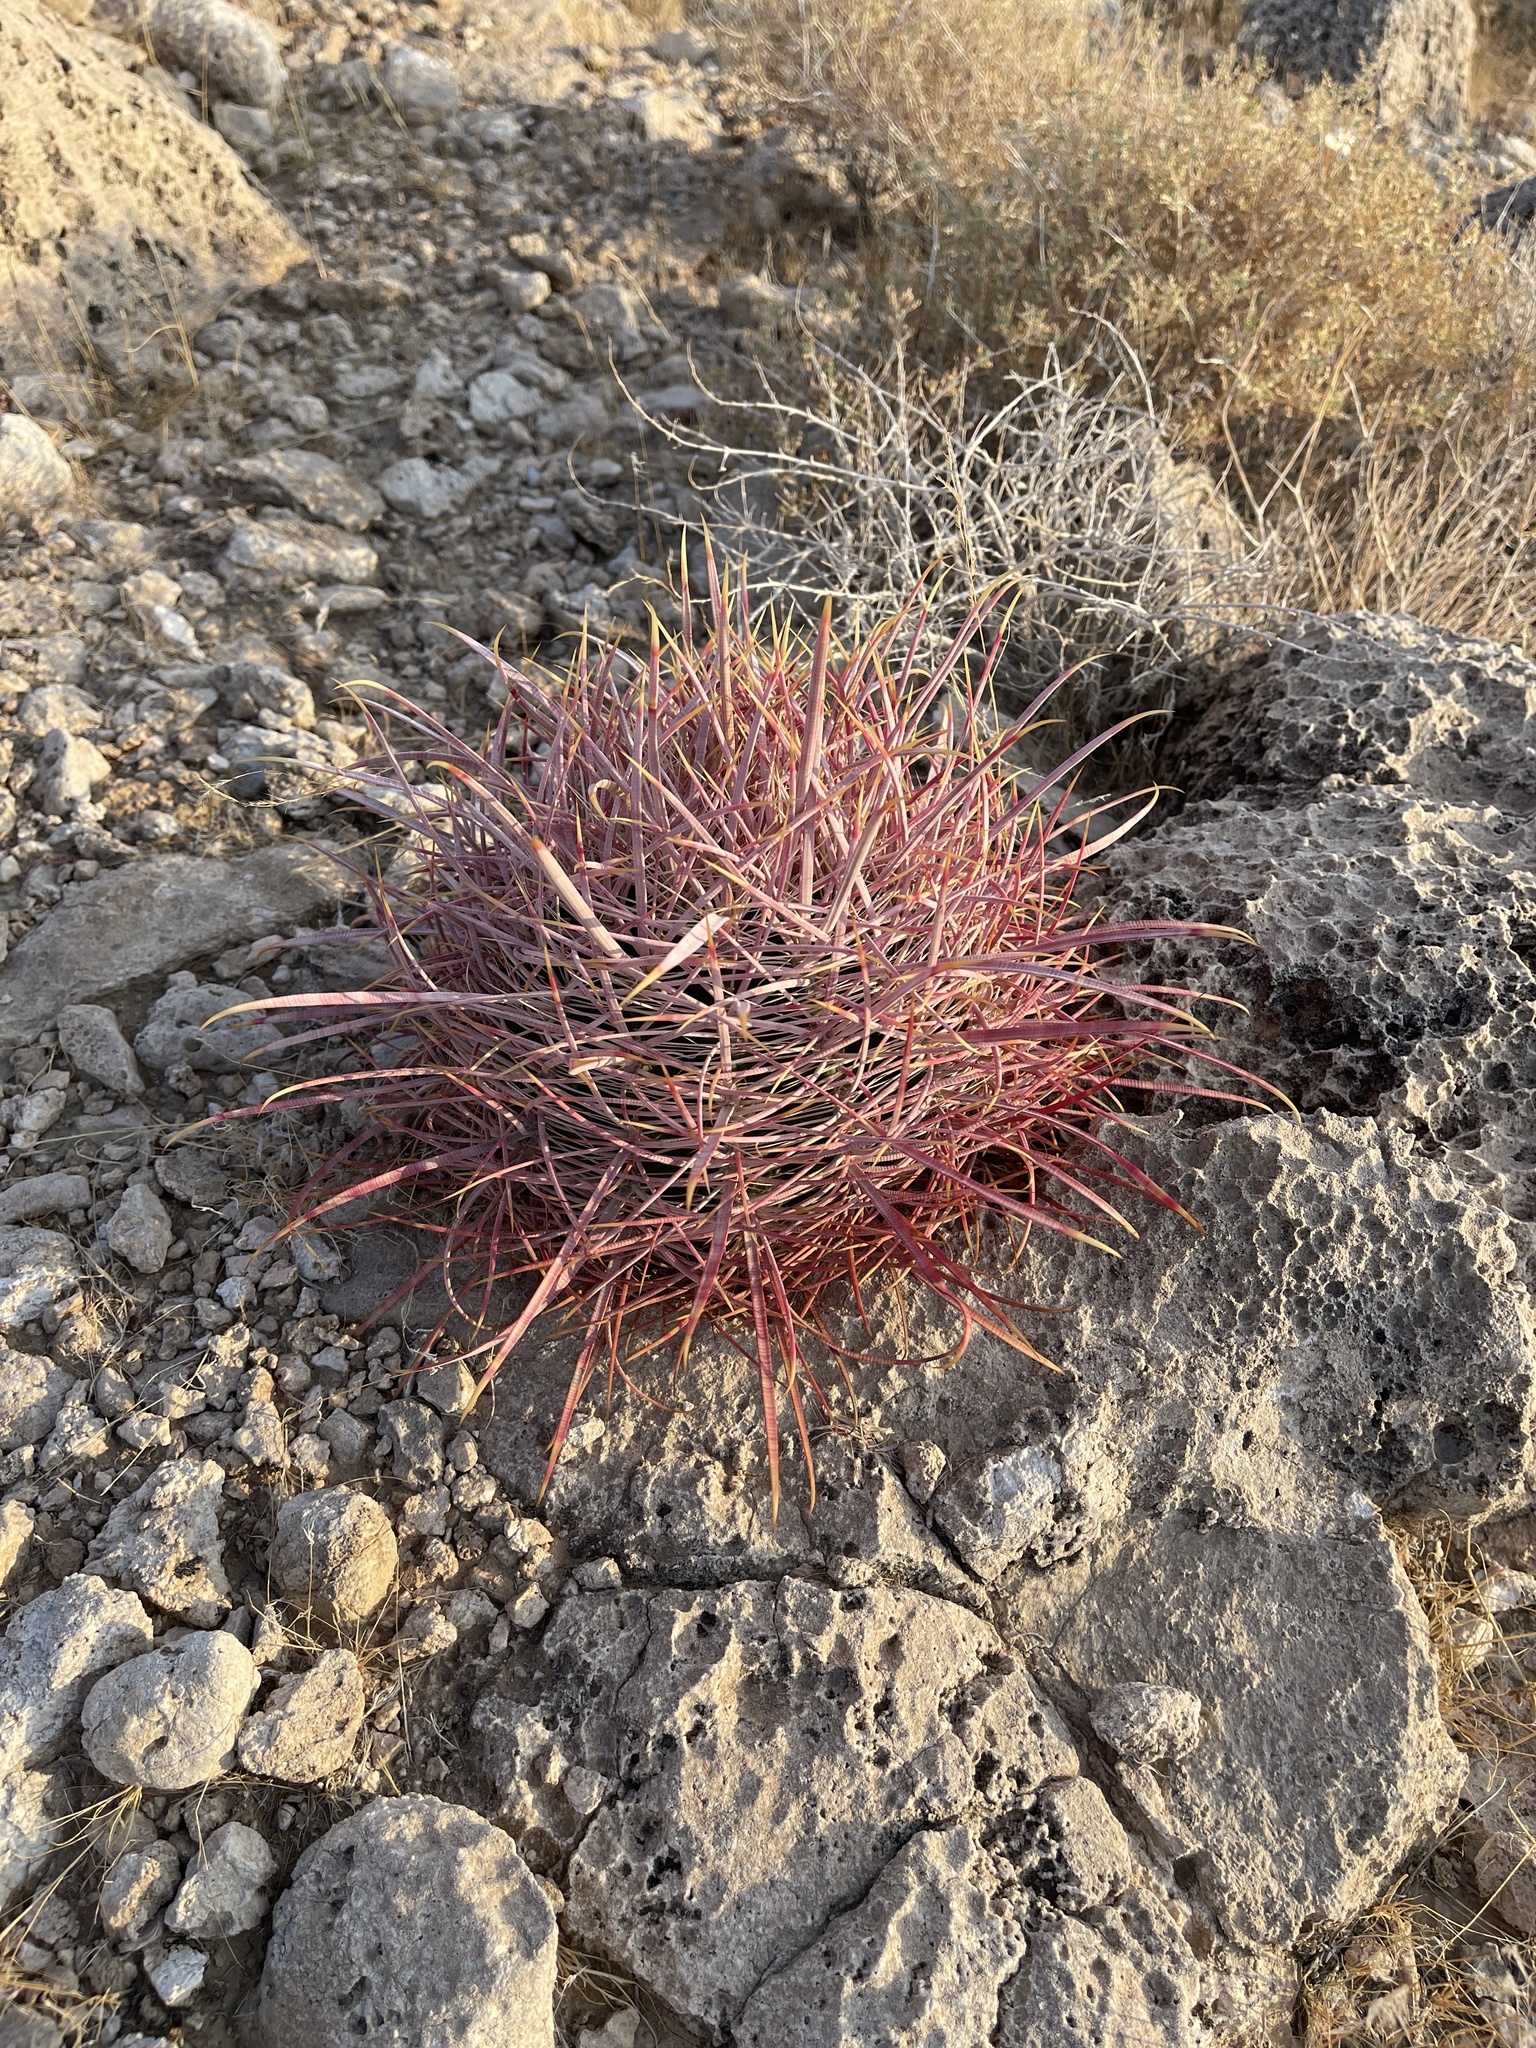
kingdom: Plantae
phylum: Tracheophyta
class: Magnoliopsida
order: Caryophyllales
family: Cactaceae
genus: Ferocactus
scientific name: Ferocactus cylindraceus
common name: California barrel cactus
